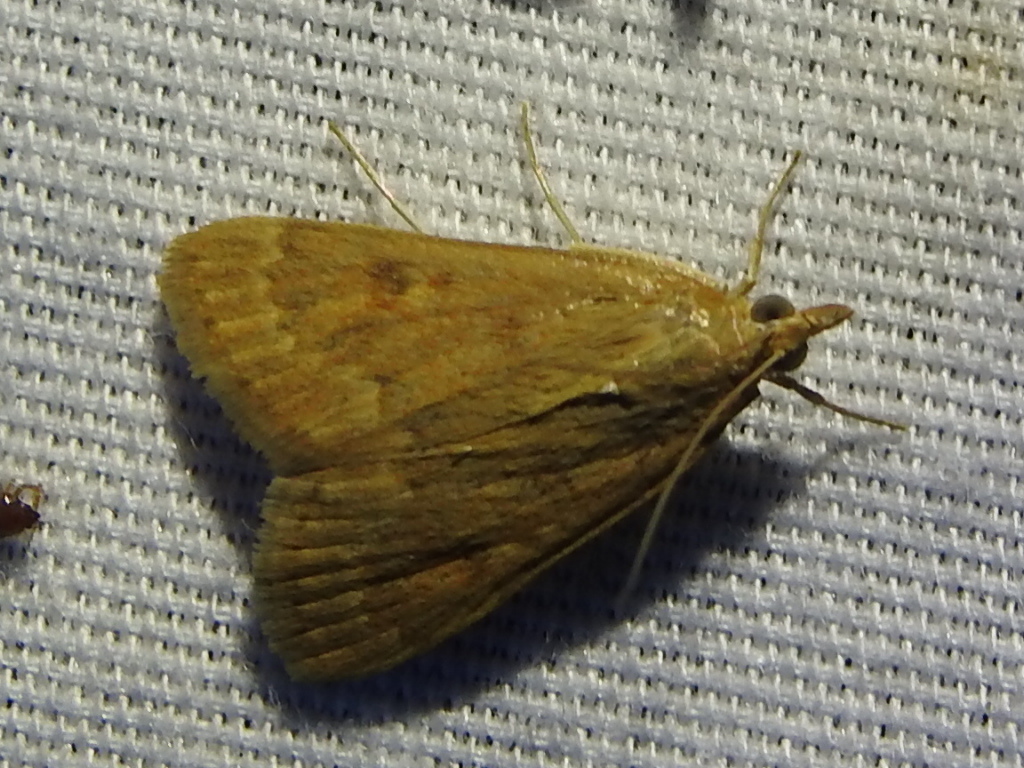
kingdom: Animalia
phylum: Arthropoda
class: Insecta
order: Lepidoptera
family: Crambidae
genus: Achyra
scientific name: Achyra rantalis
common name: Garden webworm
